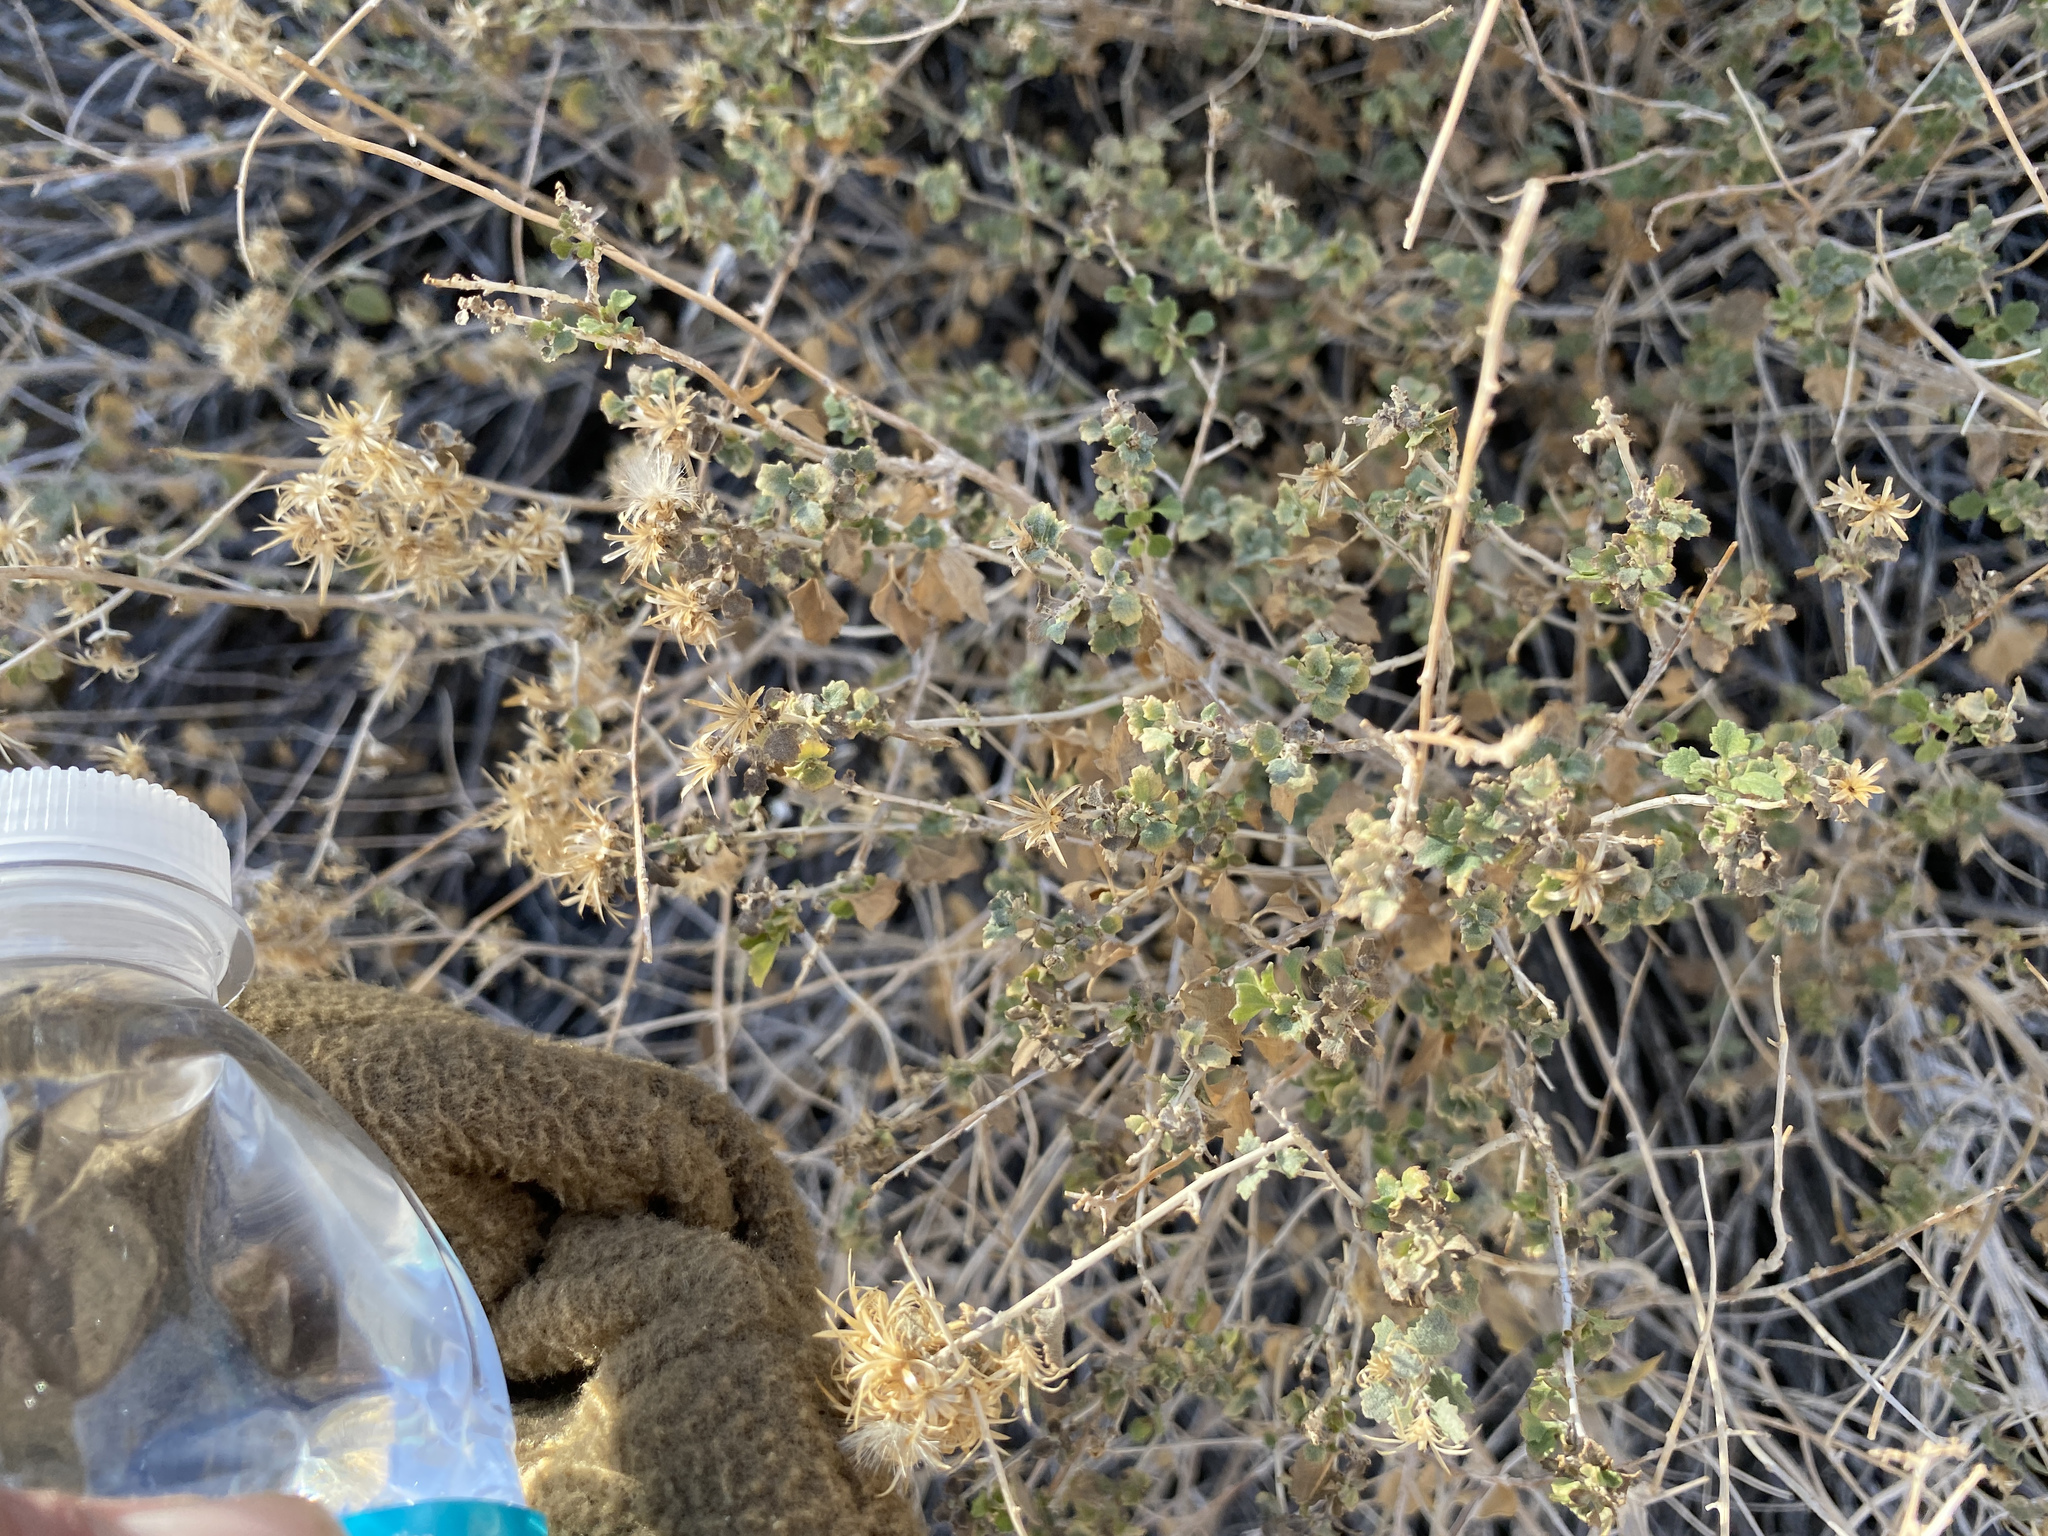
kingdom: Plantae
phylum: Tracheophyta
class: Magnoliopsida
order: Asterales
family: Asteraceae
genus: Brickellia
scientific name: Brickellia desertorum
